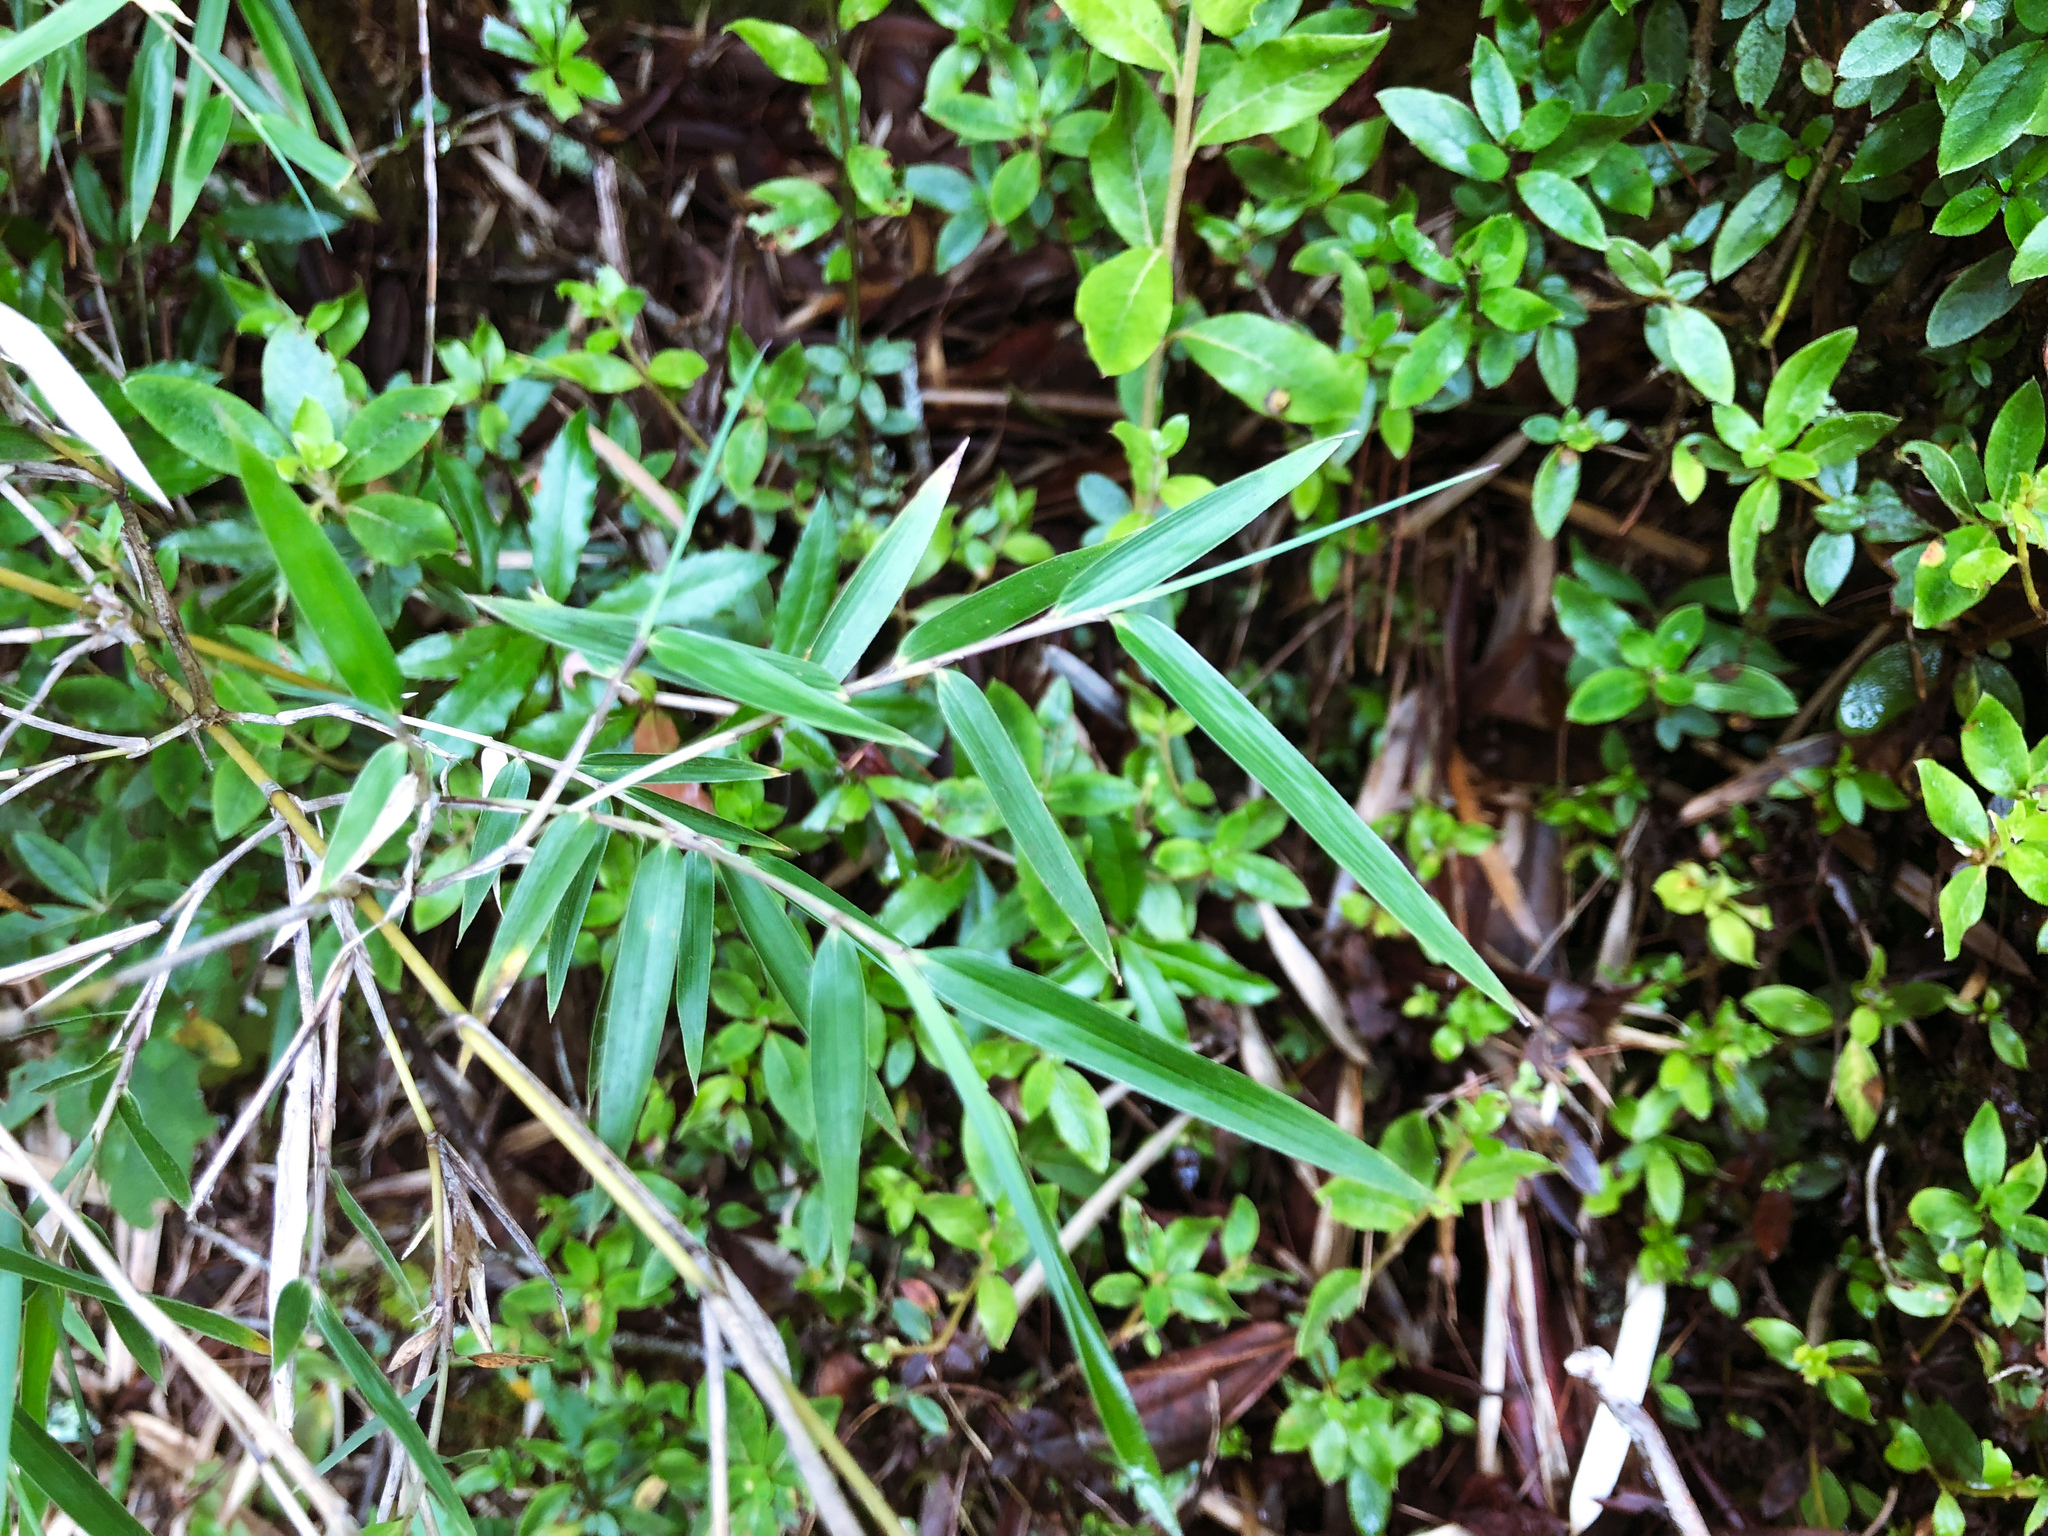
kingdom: Plantae
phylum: Tracheophyta
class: Liliopsida
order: Poales
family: Poaceae
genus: Yushania
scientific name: Yushania niitakayamensis
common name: Yushan cane
